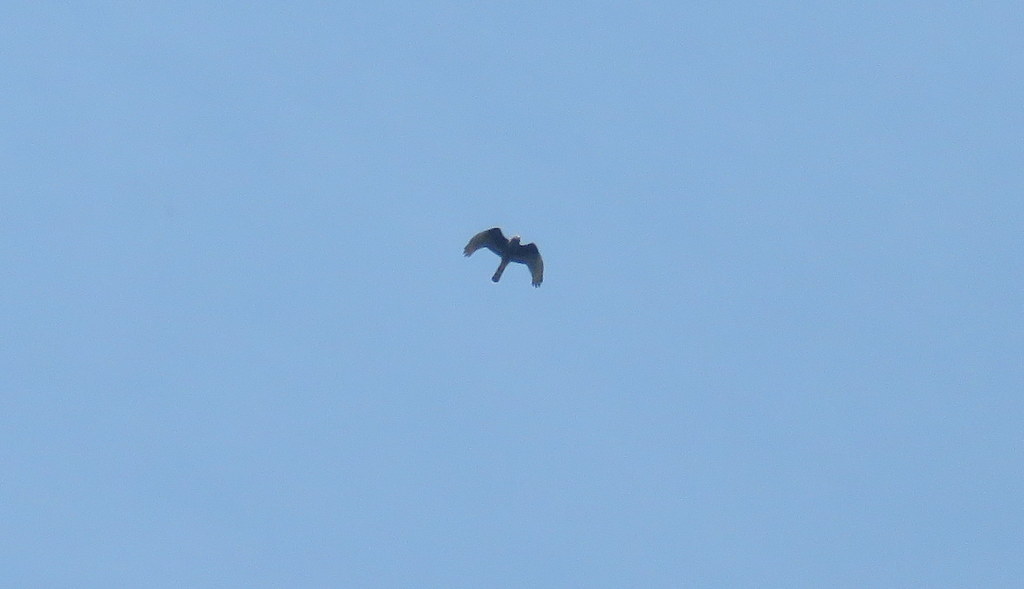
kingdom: Animalia
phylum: Chordata
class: Aves
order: Accipitriformes
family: Accipitridae
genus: Circus
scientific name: Circus buffoni
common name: Long-winged harrier
